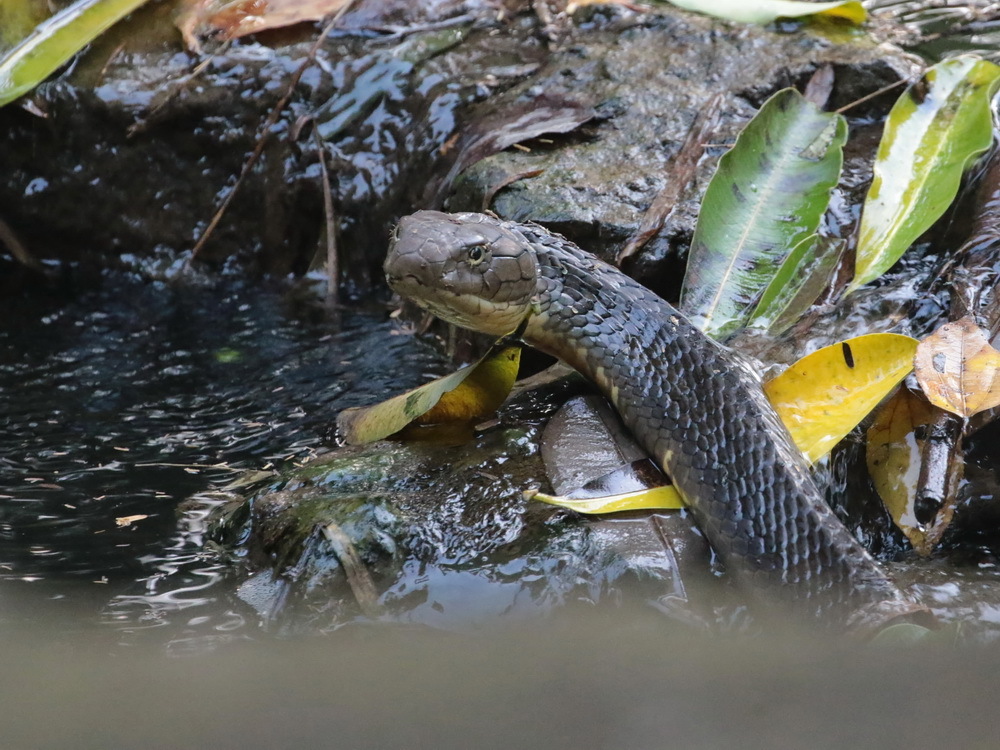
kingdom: Animalia
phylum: Chordata
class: Squamata
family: Elapidae
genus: Ophiophagus
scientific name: Ophiophagus hannah
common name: Hamadryad
